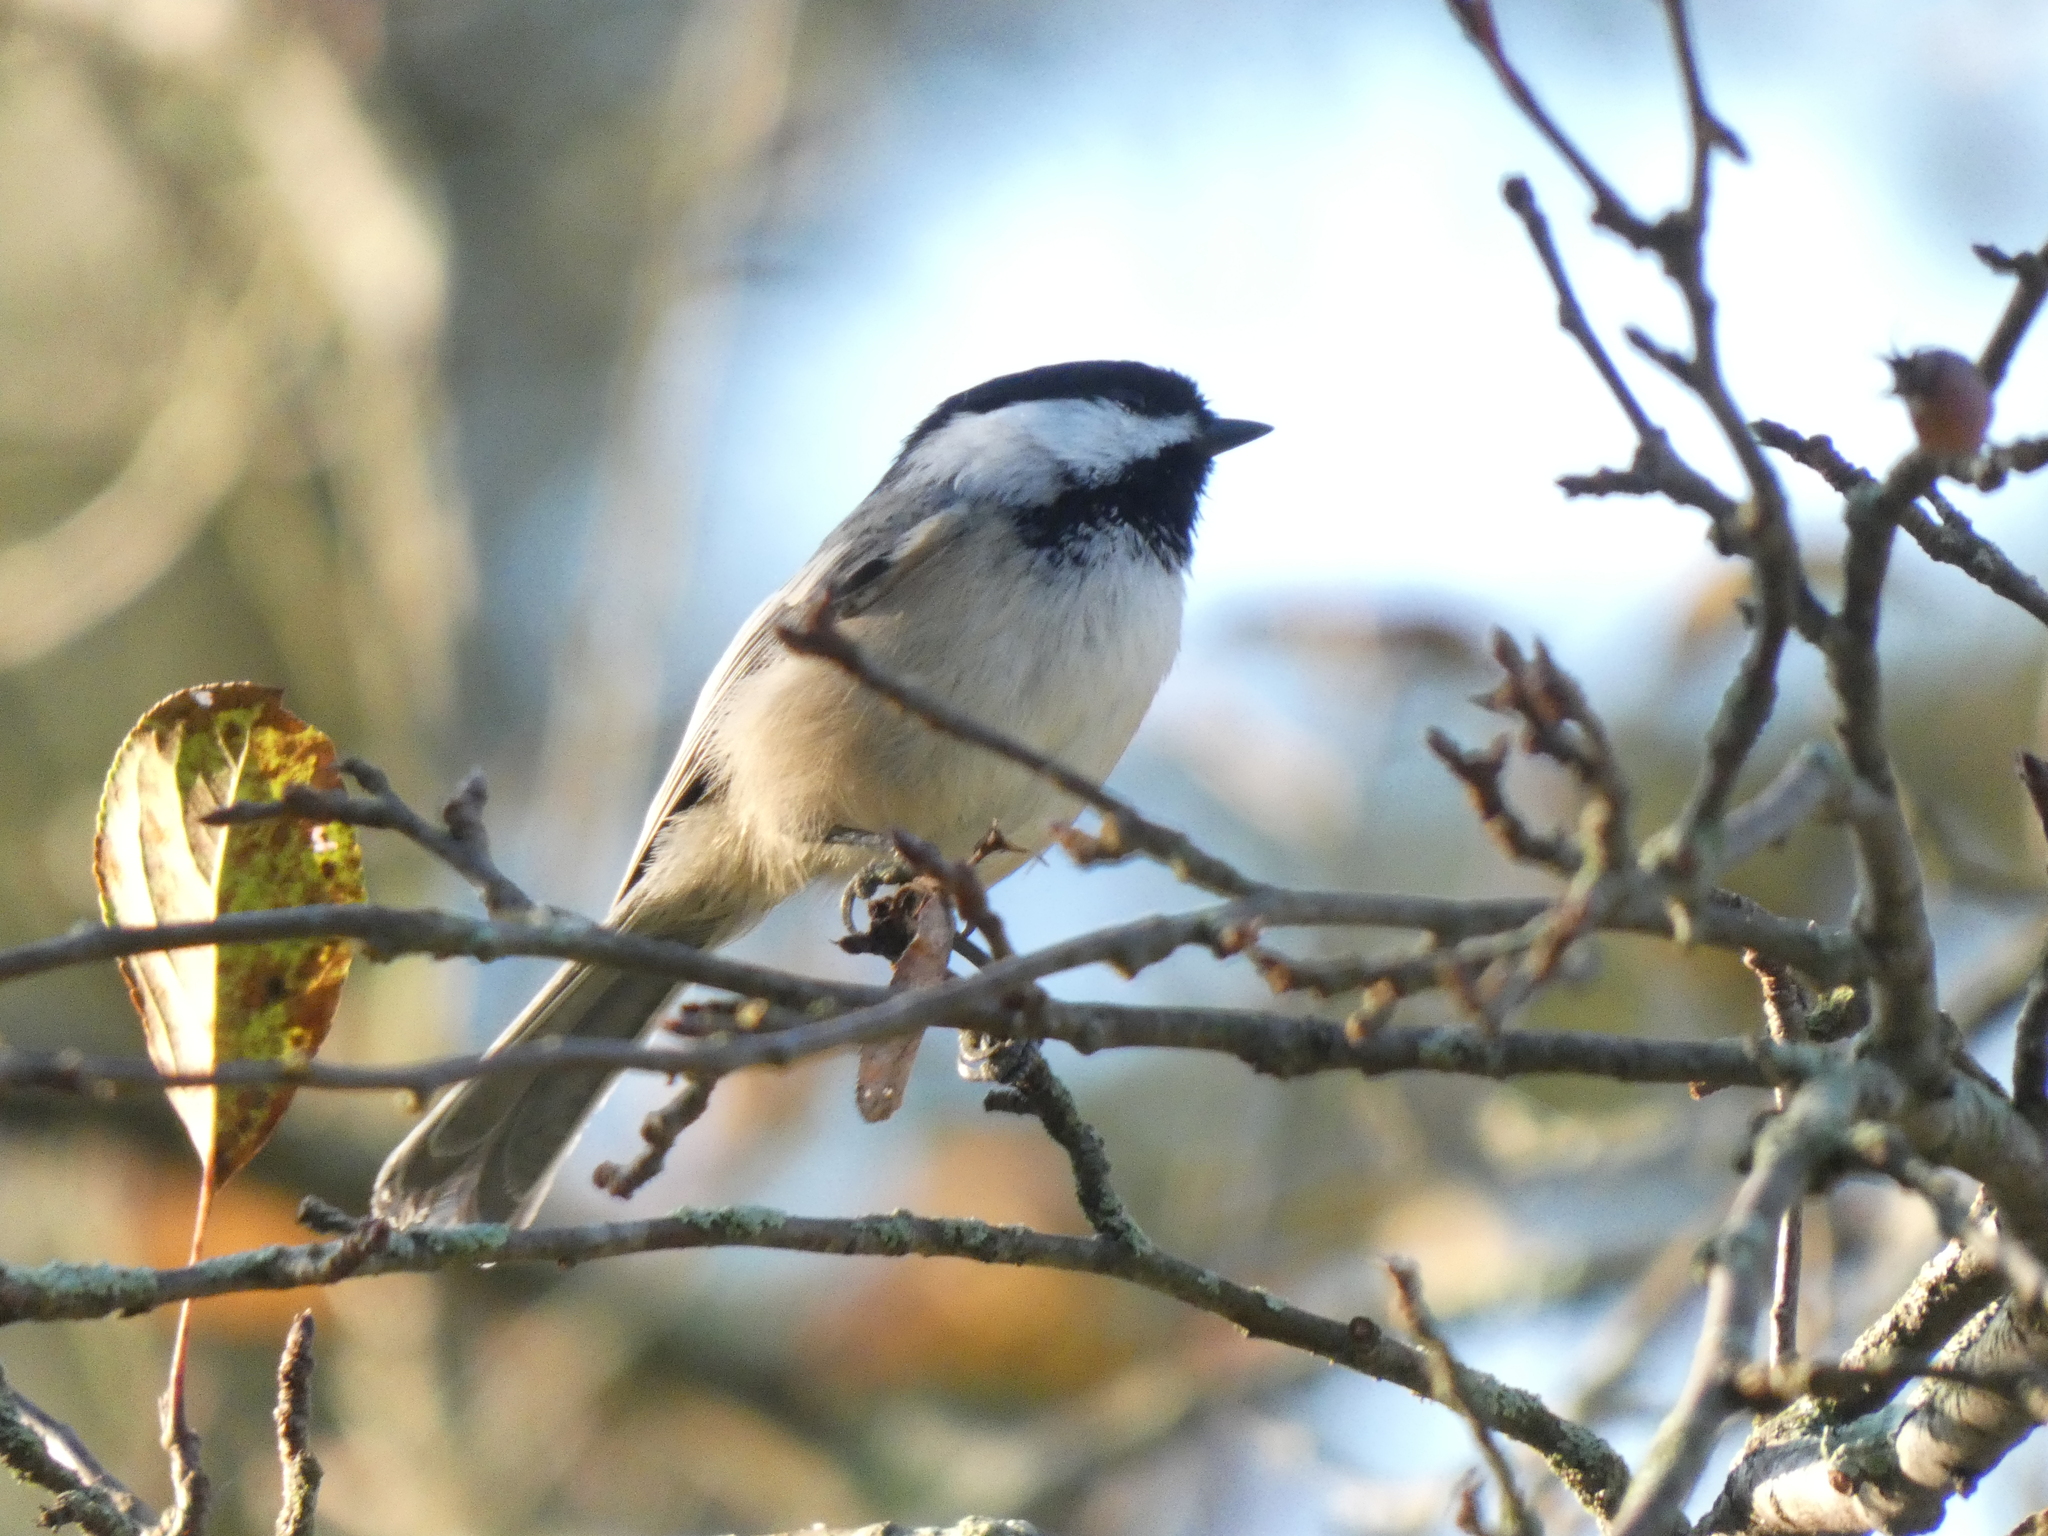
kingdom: Animalia
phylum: Chordata
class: Aves
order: Passeriformes
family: Paridae
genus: Poecile
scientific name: Poecile atricapillus
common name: Black-capped chickadee
